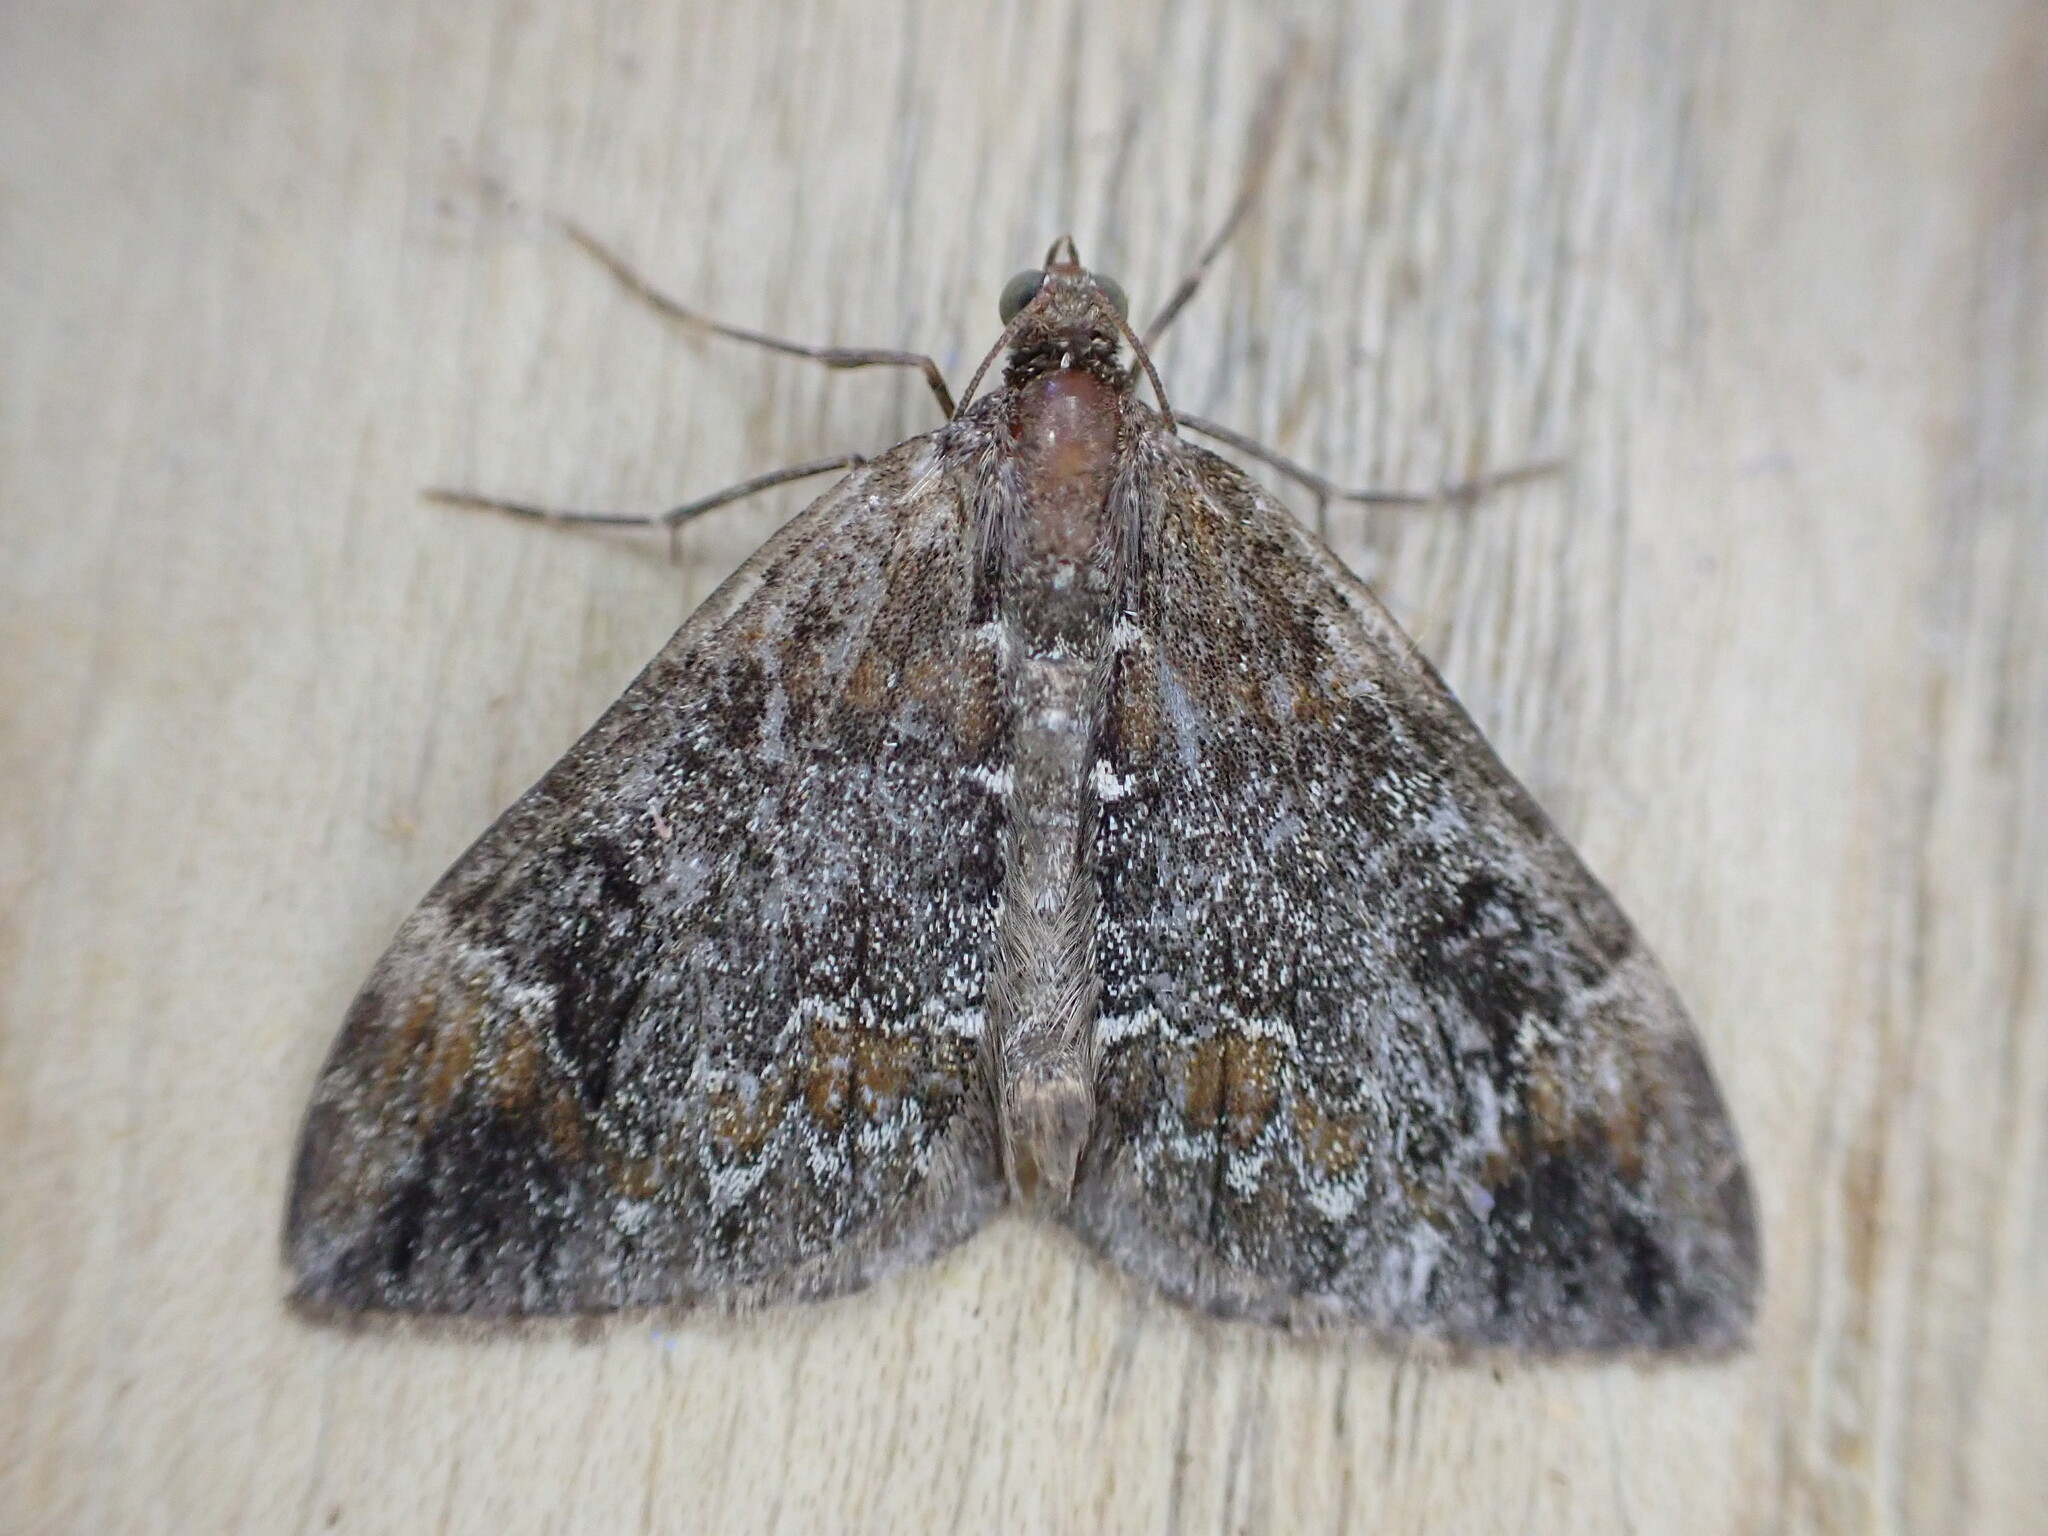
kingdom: Animalia
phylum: Arthropoda
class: Insecta
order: Lepidoptera
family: Geometridae
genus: Dysstroma
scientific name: Dysstroma truncata
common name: Common marbled carpet
